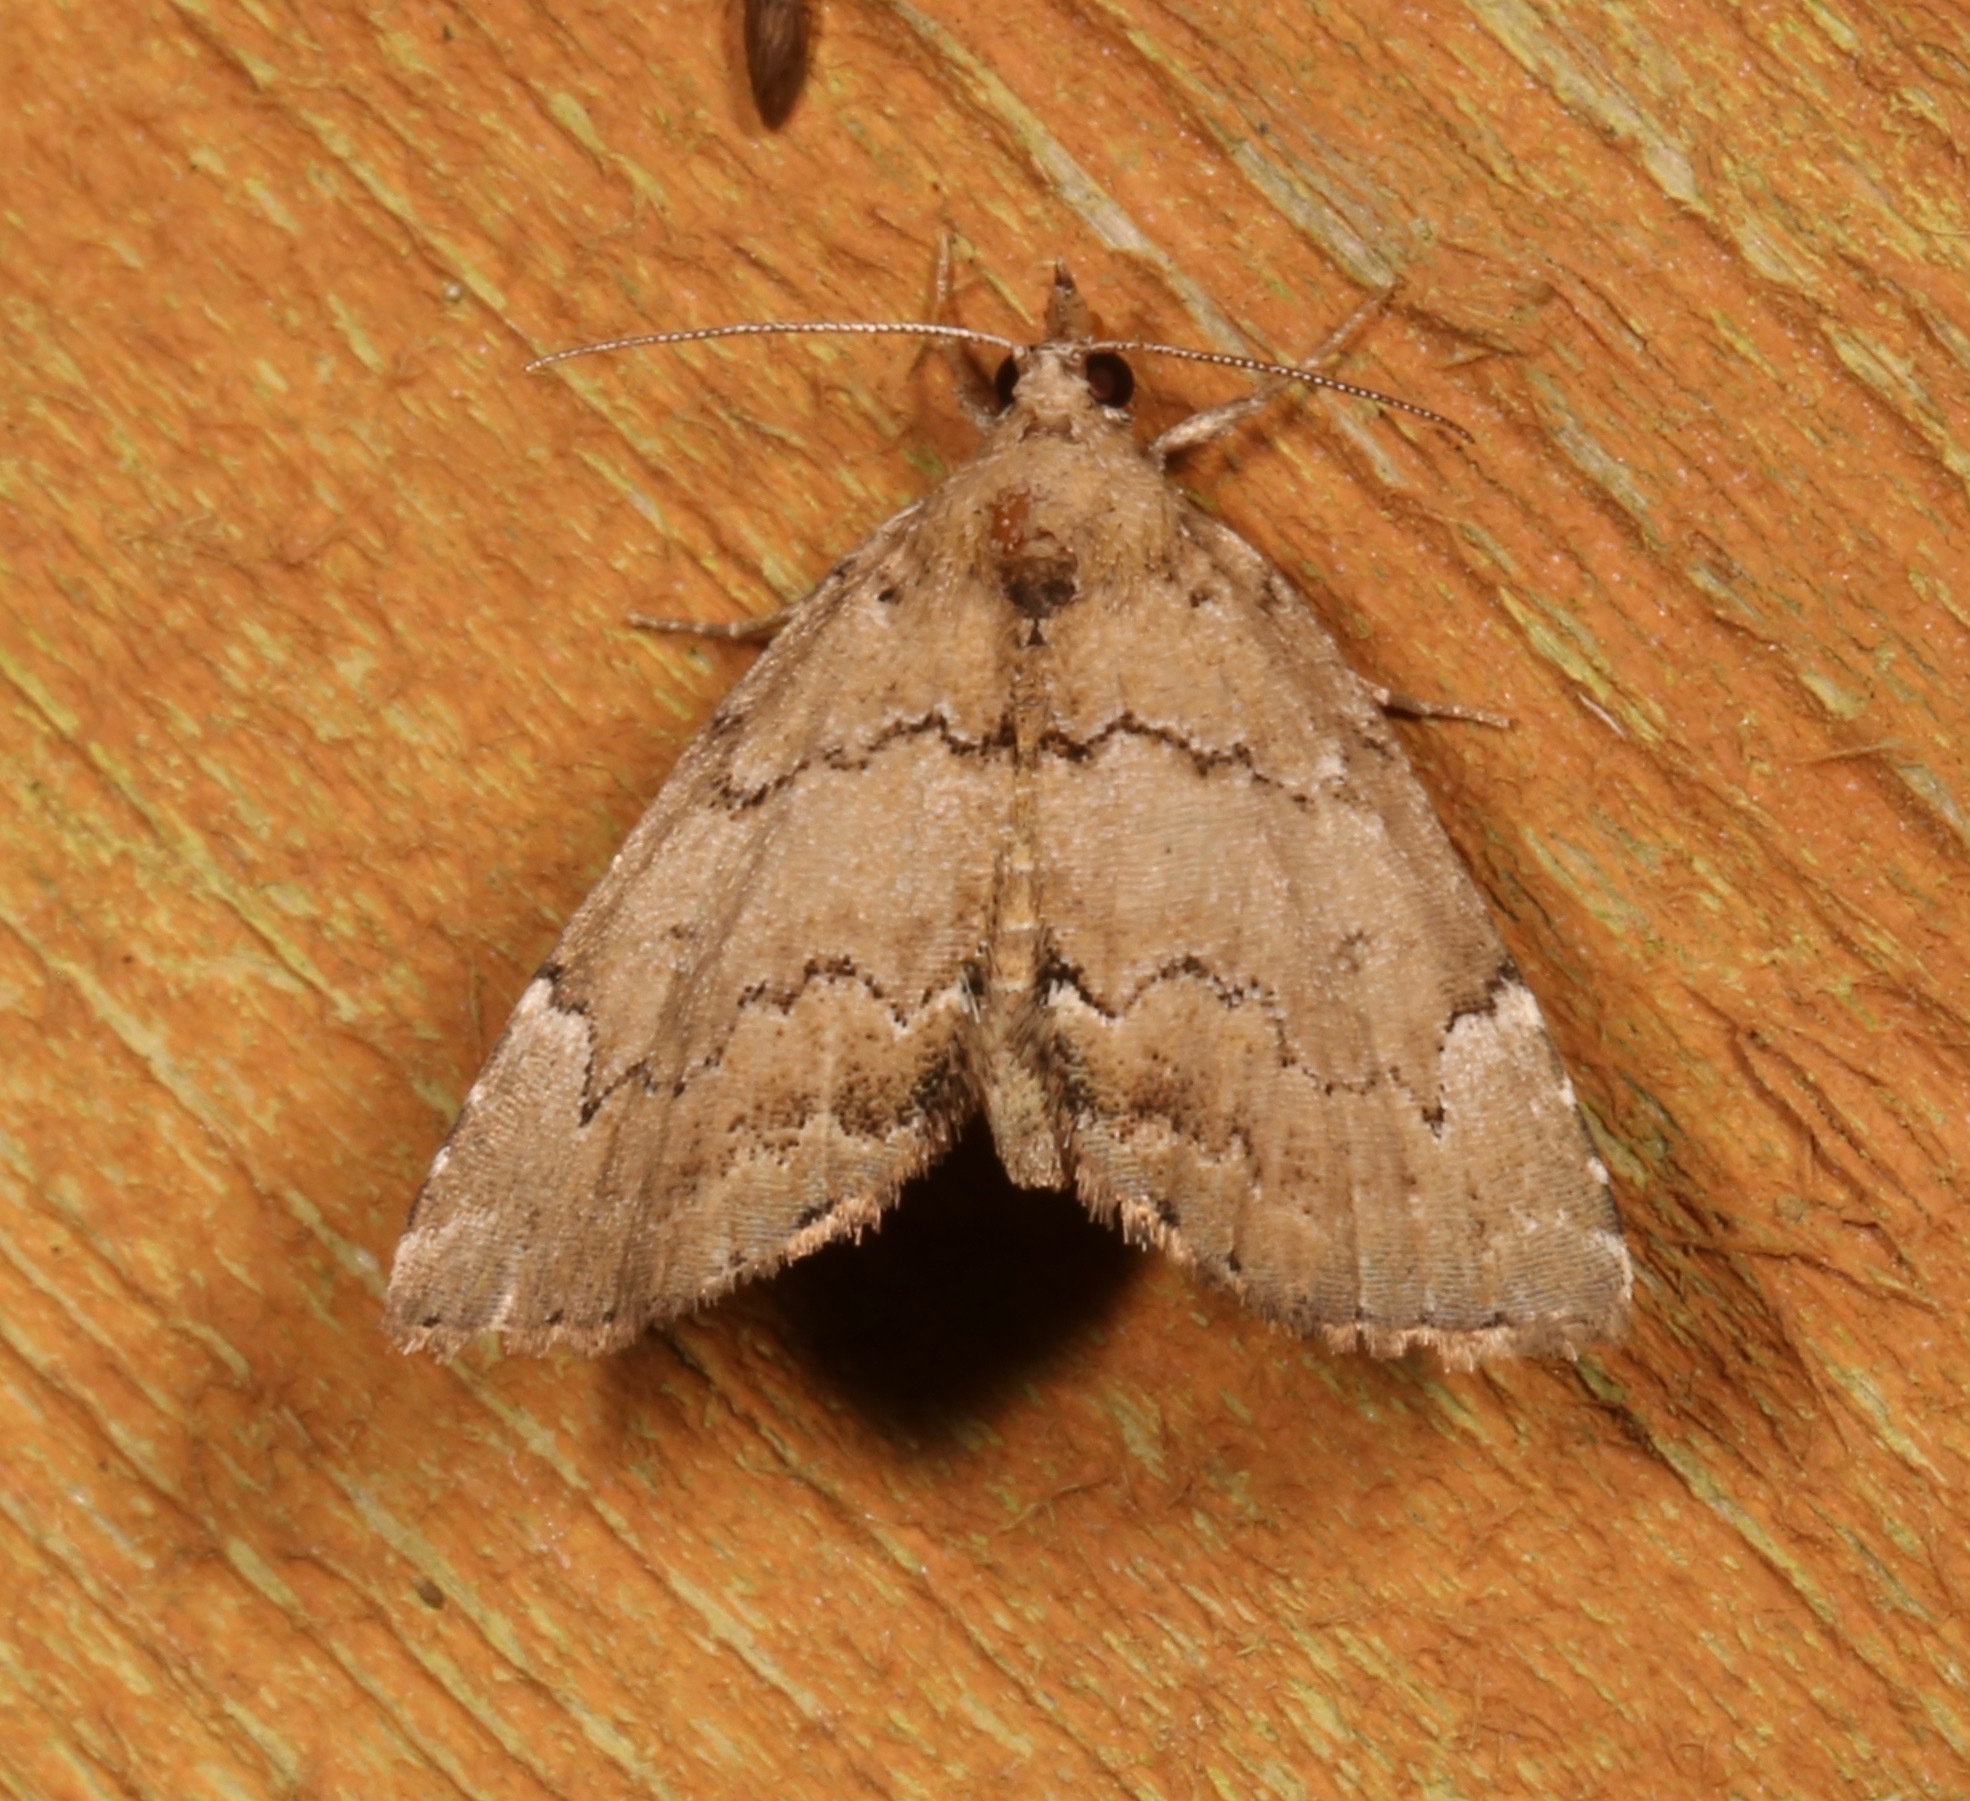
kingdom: Animalia
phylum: Arthropoda
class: Insecta
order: Lepidoptera
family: Erebidae
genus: Cutina
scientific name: Cutina aluticolor
